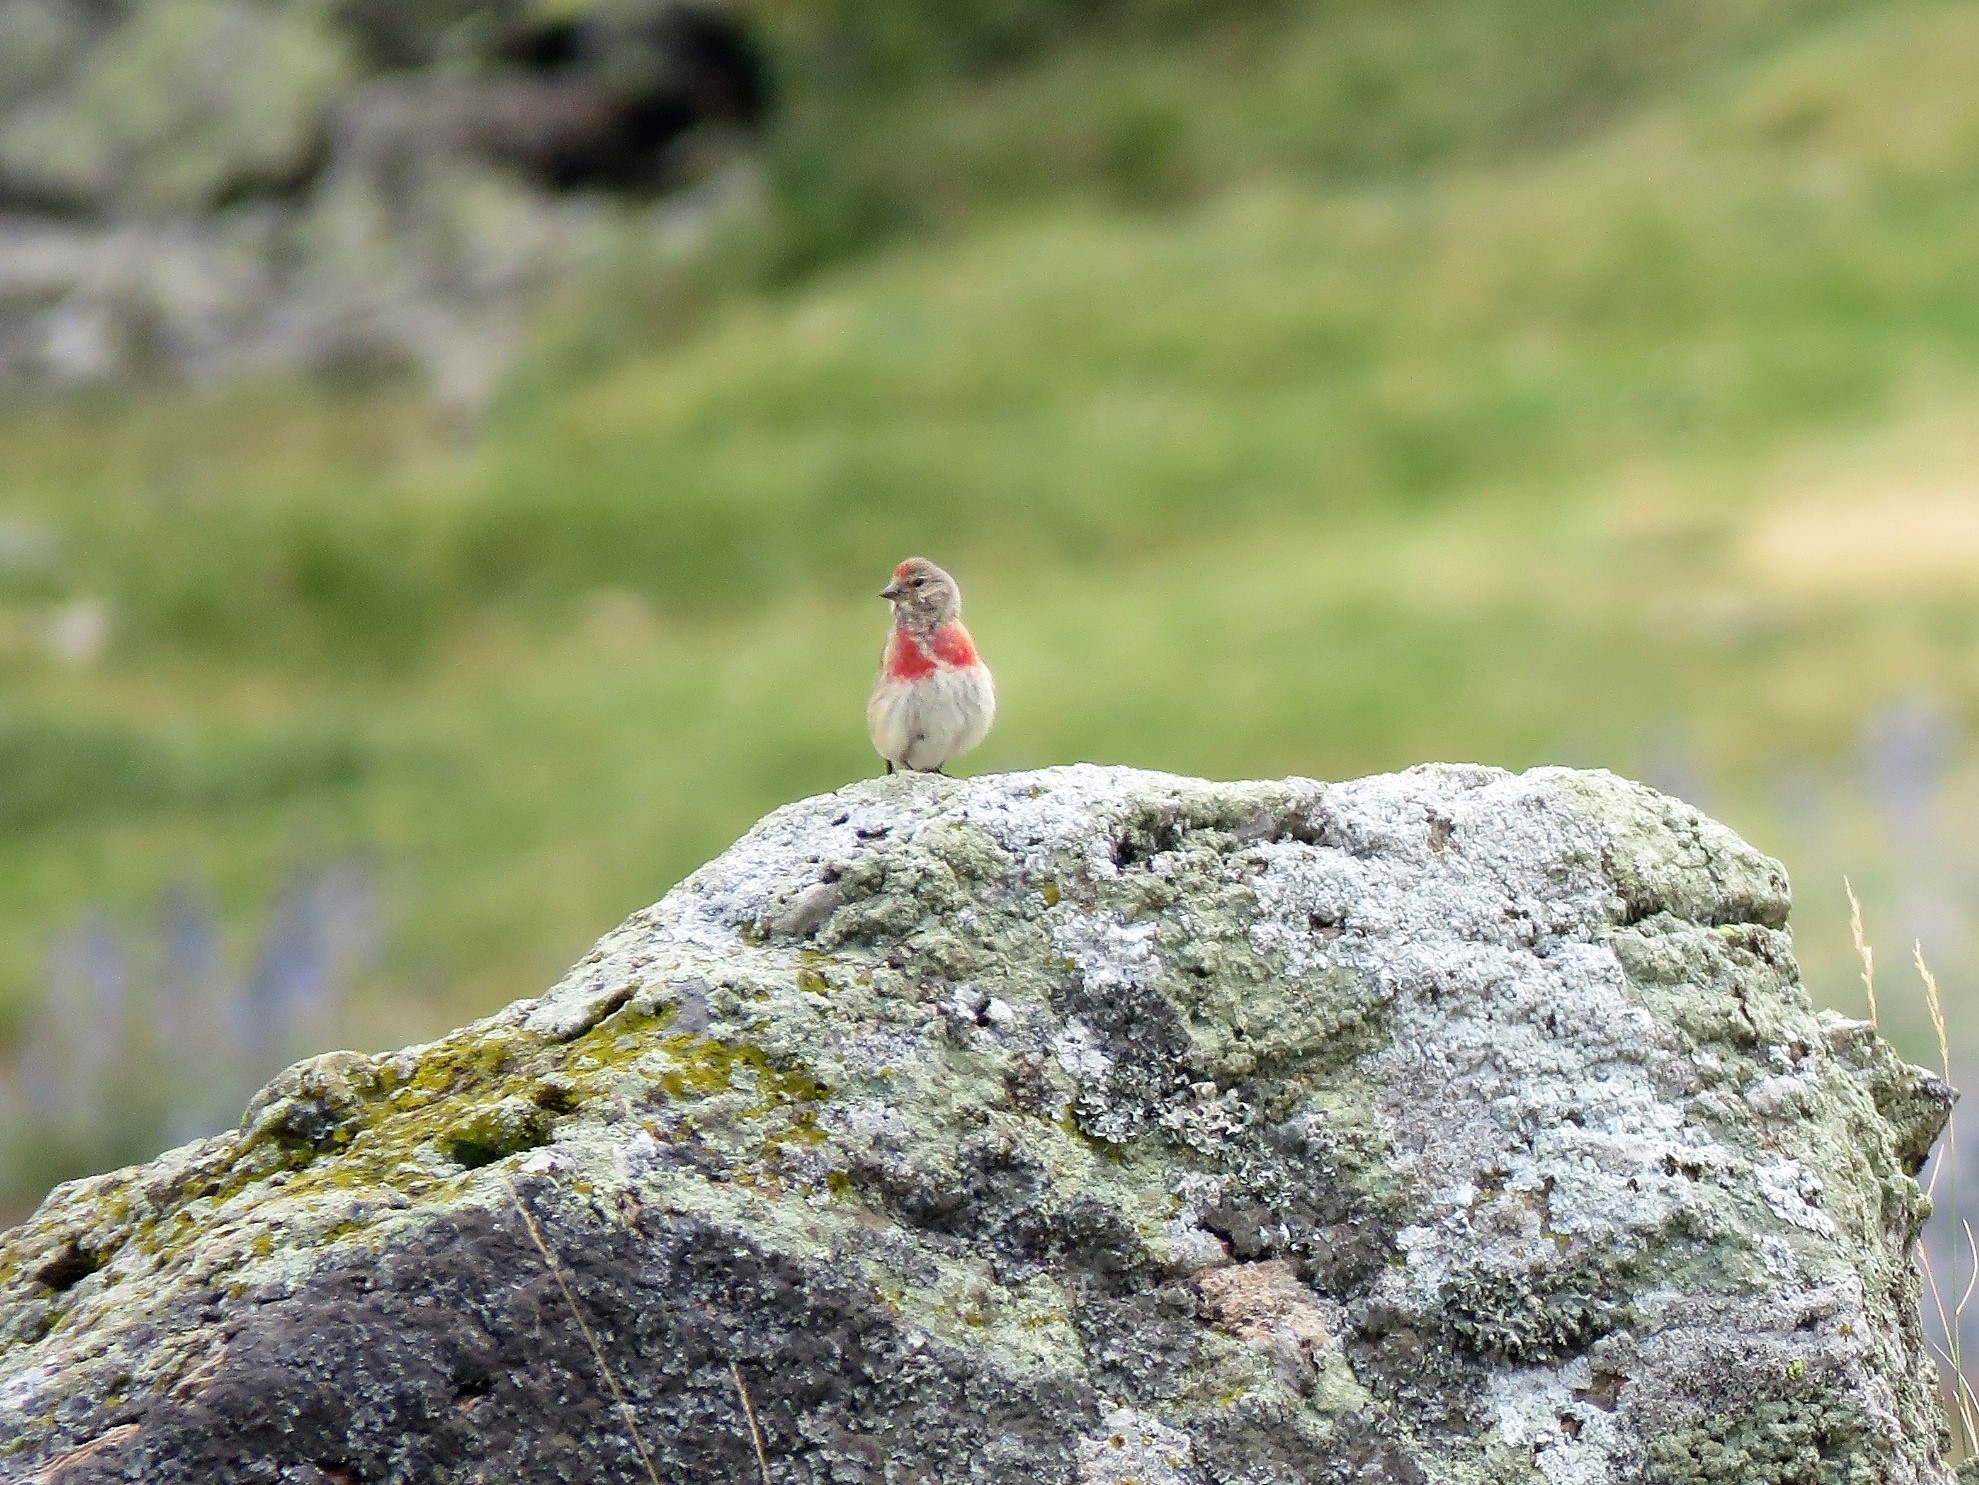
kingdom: Animalia
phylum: Chordata
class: Aves
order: Passeriformes
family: Fringillidae
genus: Linaria
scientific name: Linaria cannabina
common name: Common linnet
